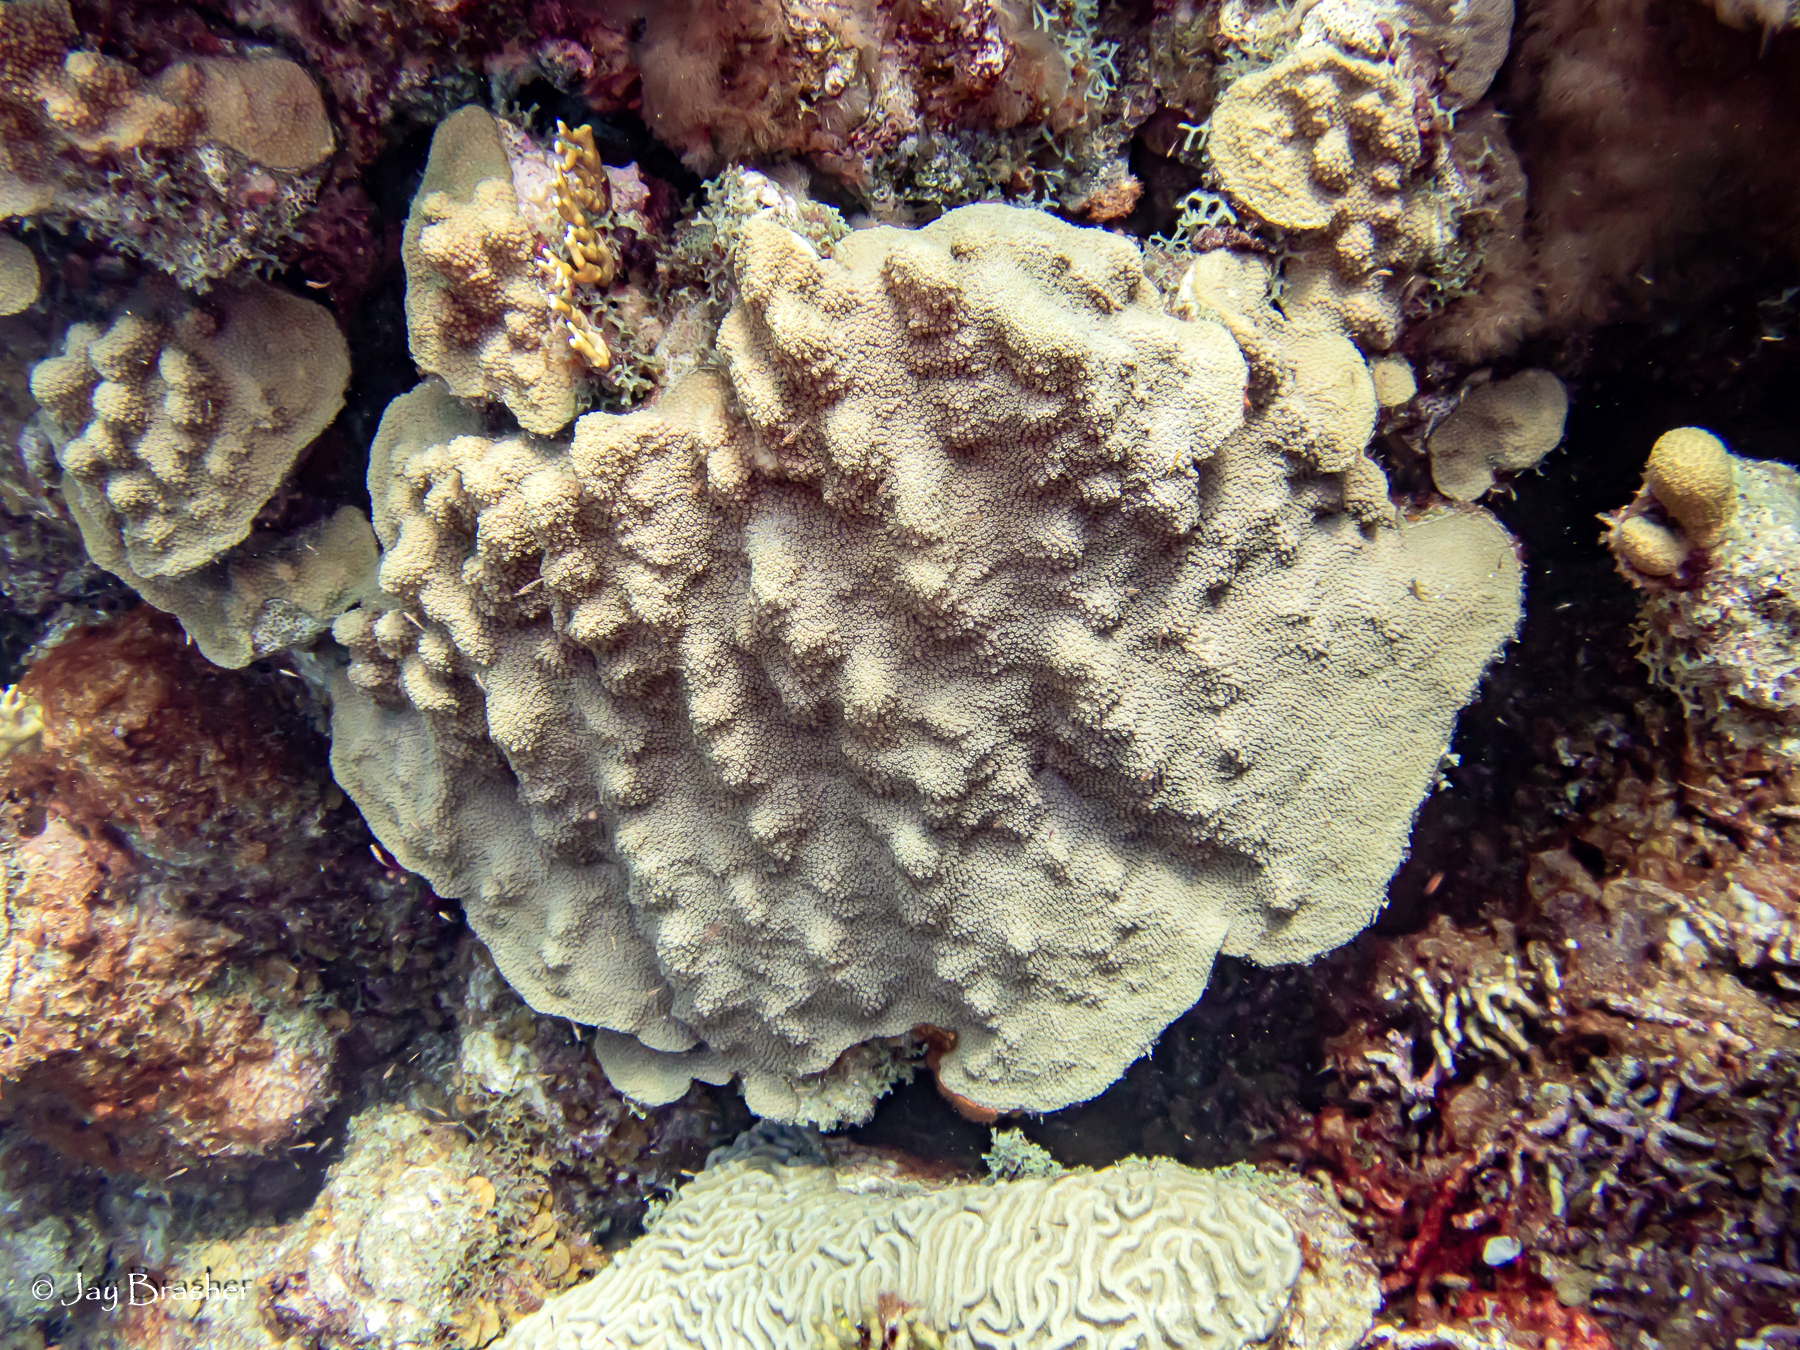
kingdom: Animalia
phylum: Cnidaria
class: Anthozoa
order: Scleractinia
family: Merulinidae
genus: Orbicella
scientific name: Orbicella faveolata
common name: Mountainous star coral
